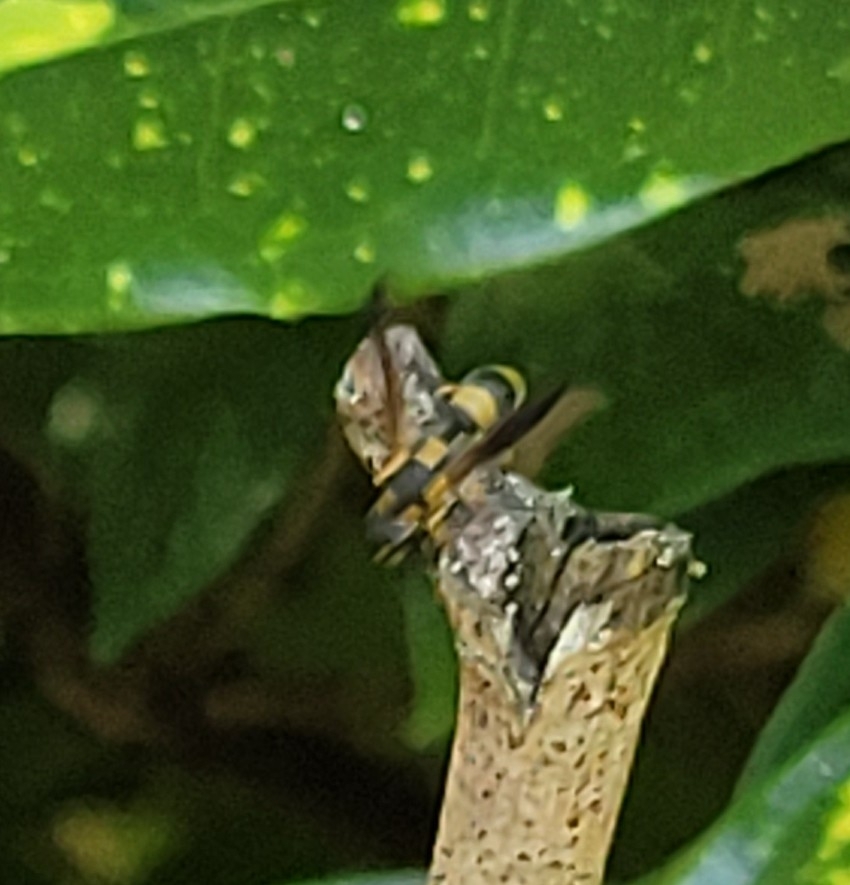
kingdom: Animalia
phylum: Arthropoda
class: Insecta
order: Hymenoptera
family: Eumenidae
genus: Parancistrocerus
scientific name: Parancistrocerus perennis
